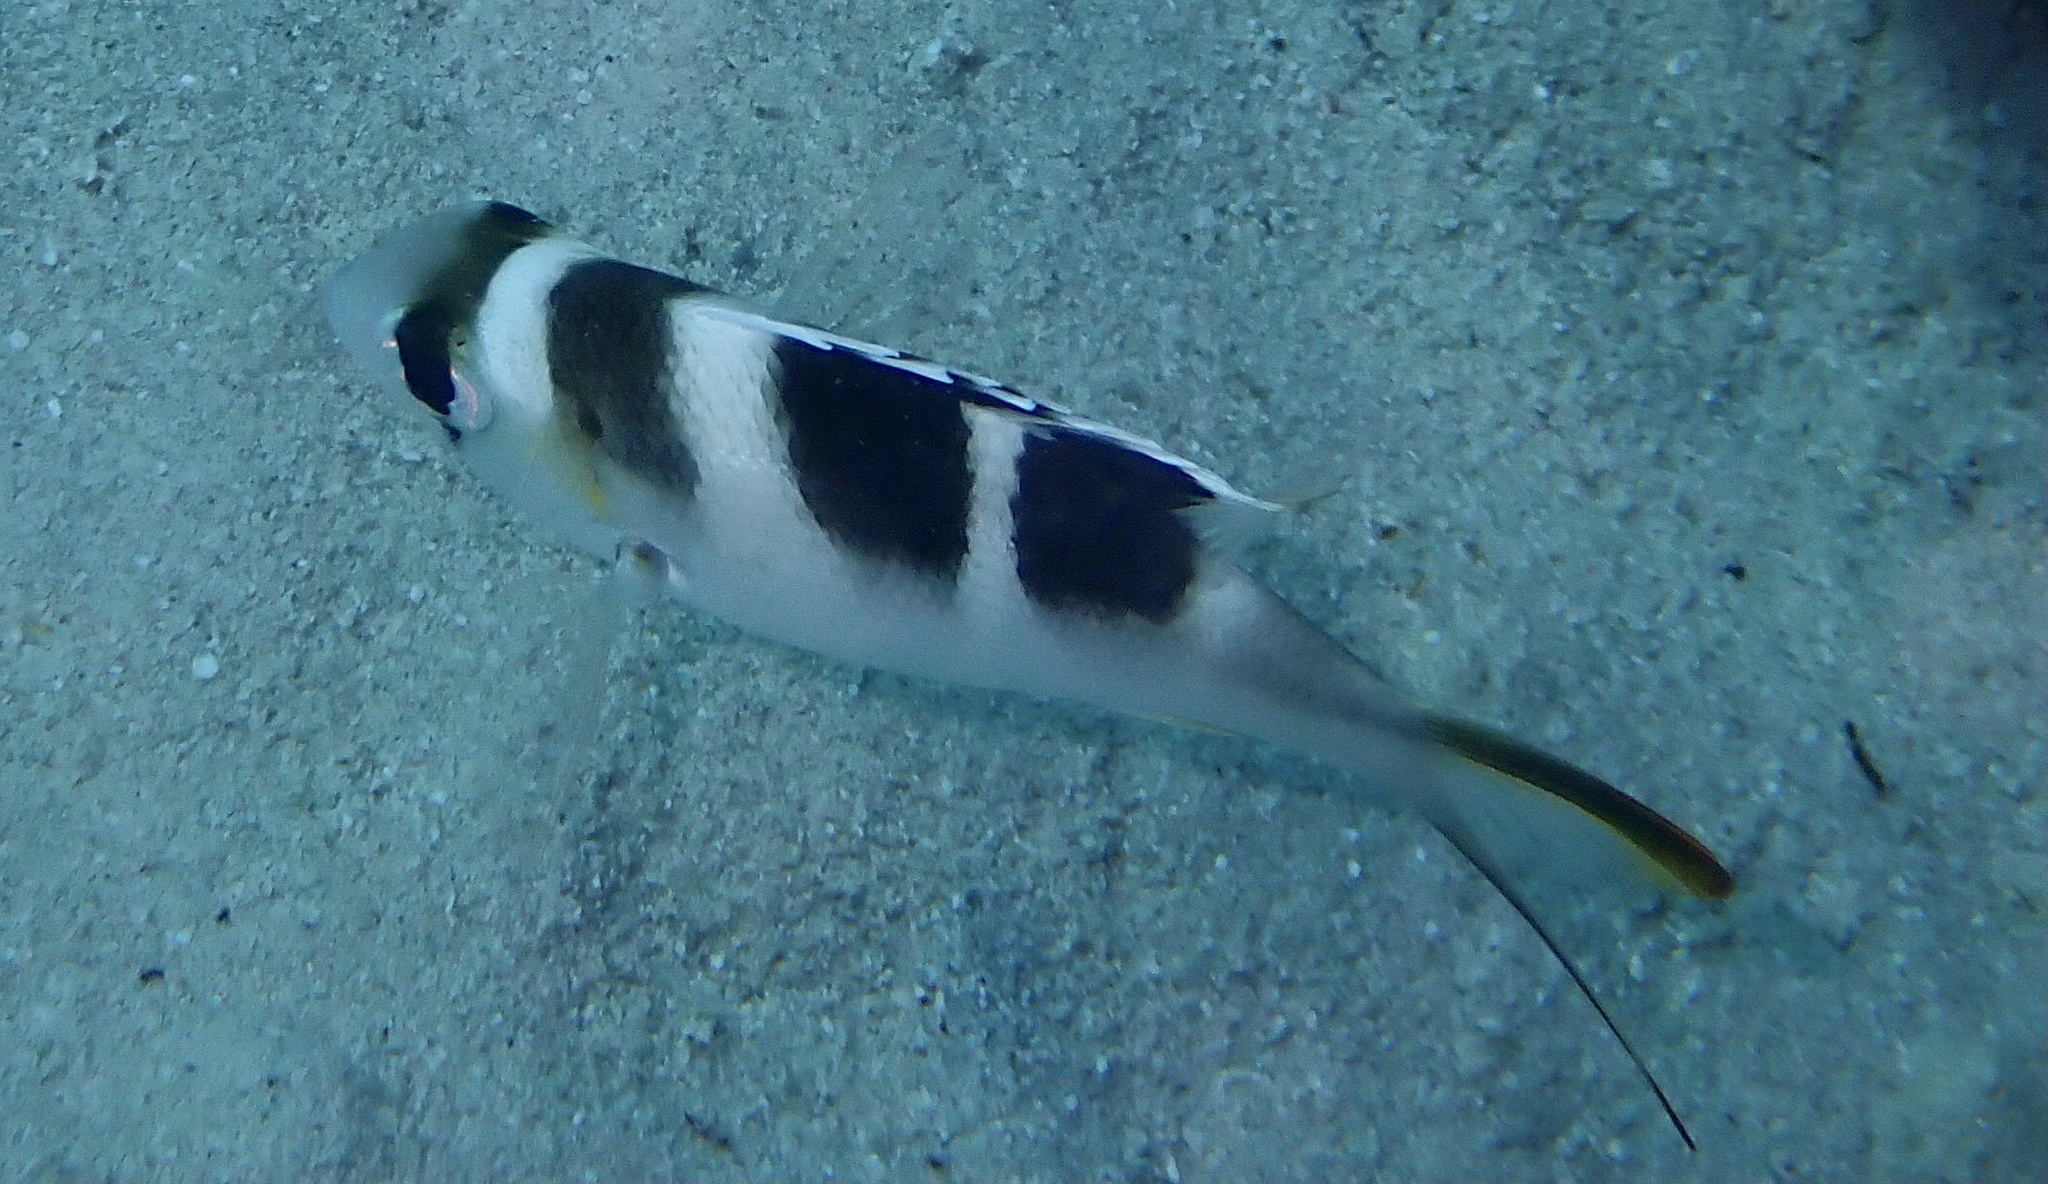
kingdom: Animalia
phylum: Chordata
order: Perciformes
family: Lethrinidae
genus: Monotaxis
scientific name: Monotaxis grandoculis
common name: Bigeye emperor
